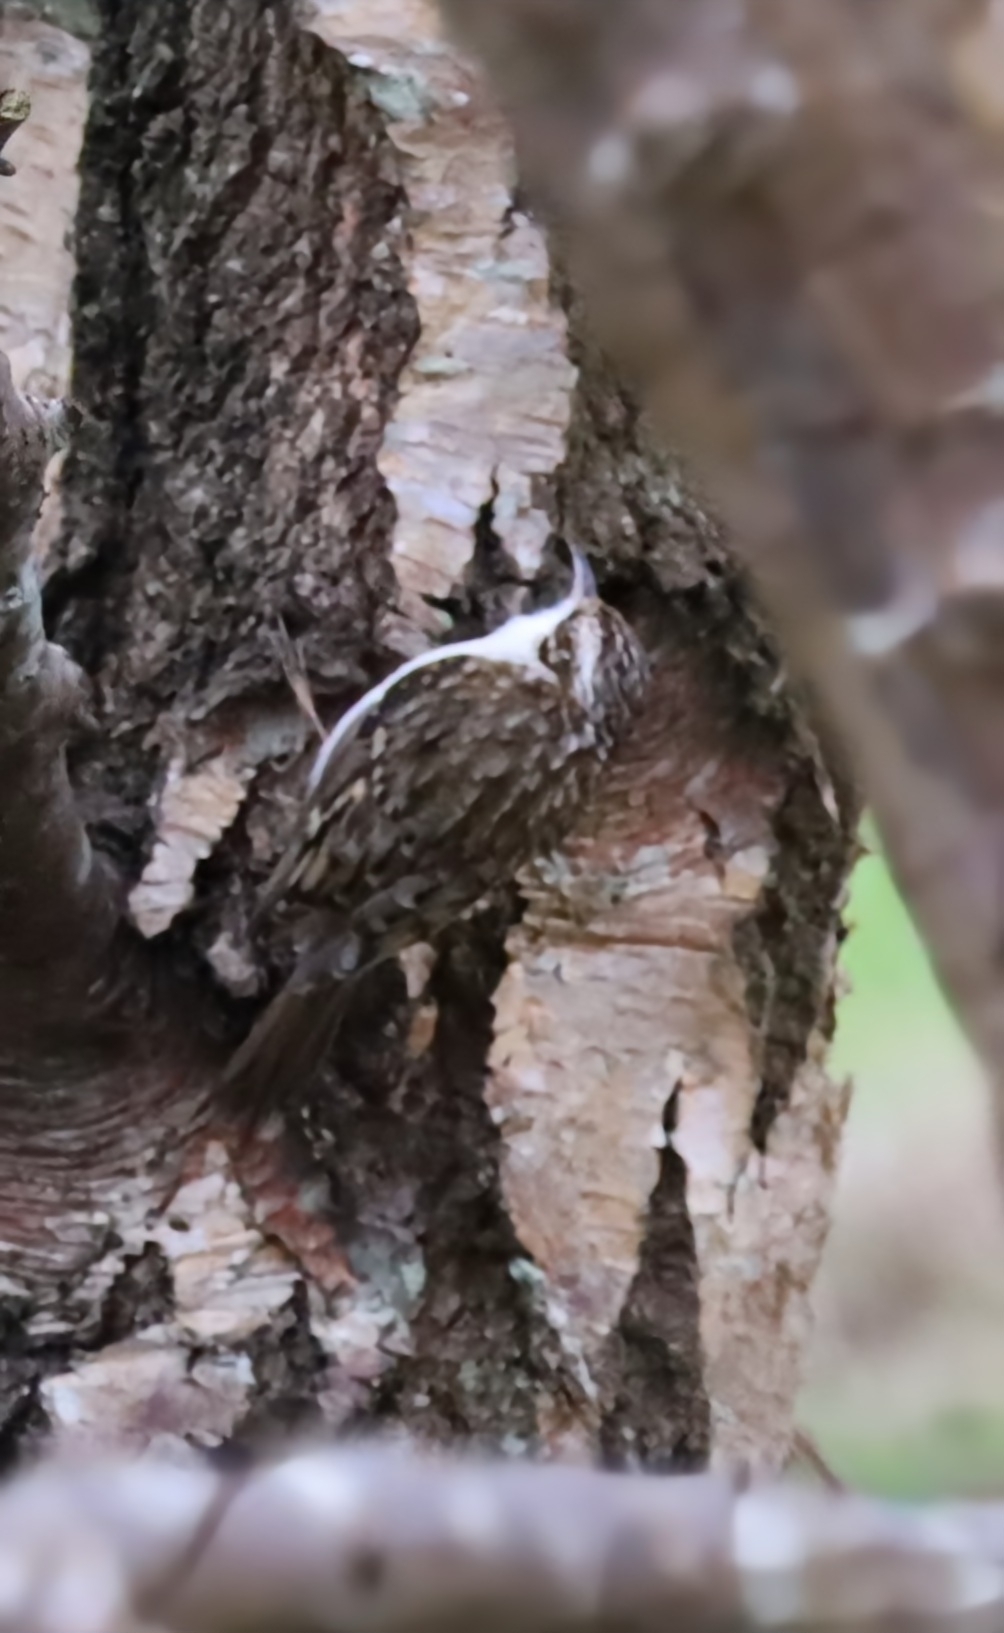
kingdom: Animalia
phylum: Chordata
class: Aves
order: Passeriformes
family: Certhiidae
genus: Certhia
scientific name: Certhia familiaris
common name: Eurasian treecreeper
